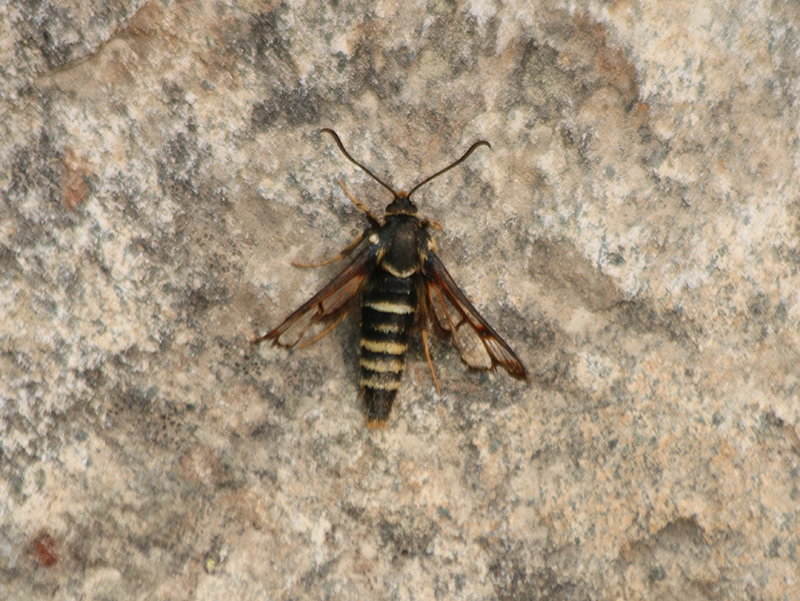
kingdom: Animalia
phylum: Arthropoda
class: Insecta
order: Lepidoptera
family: Sesiidae
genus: Albuna
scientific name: Albuna pyramidalis
